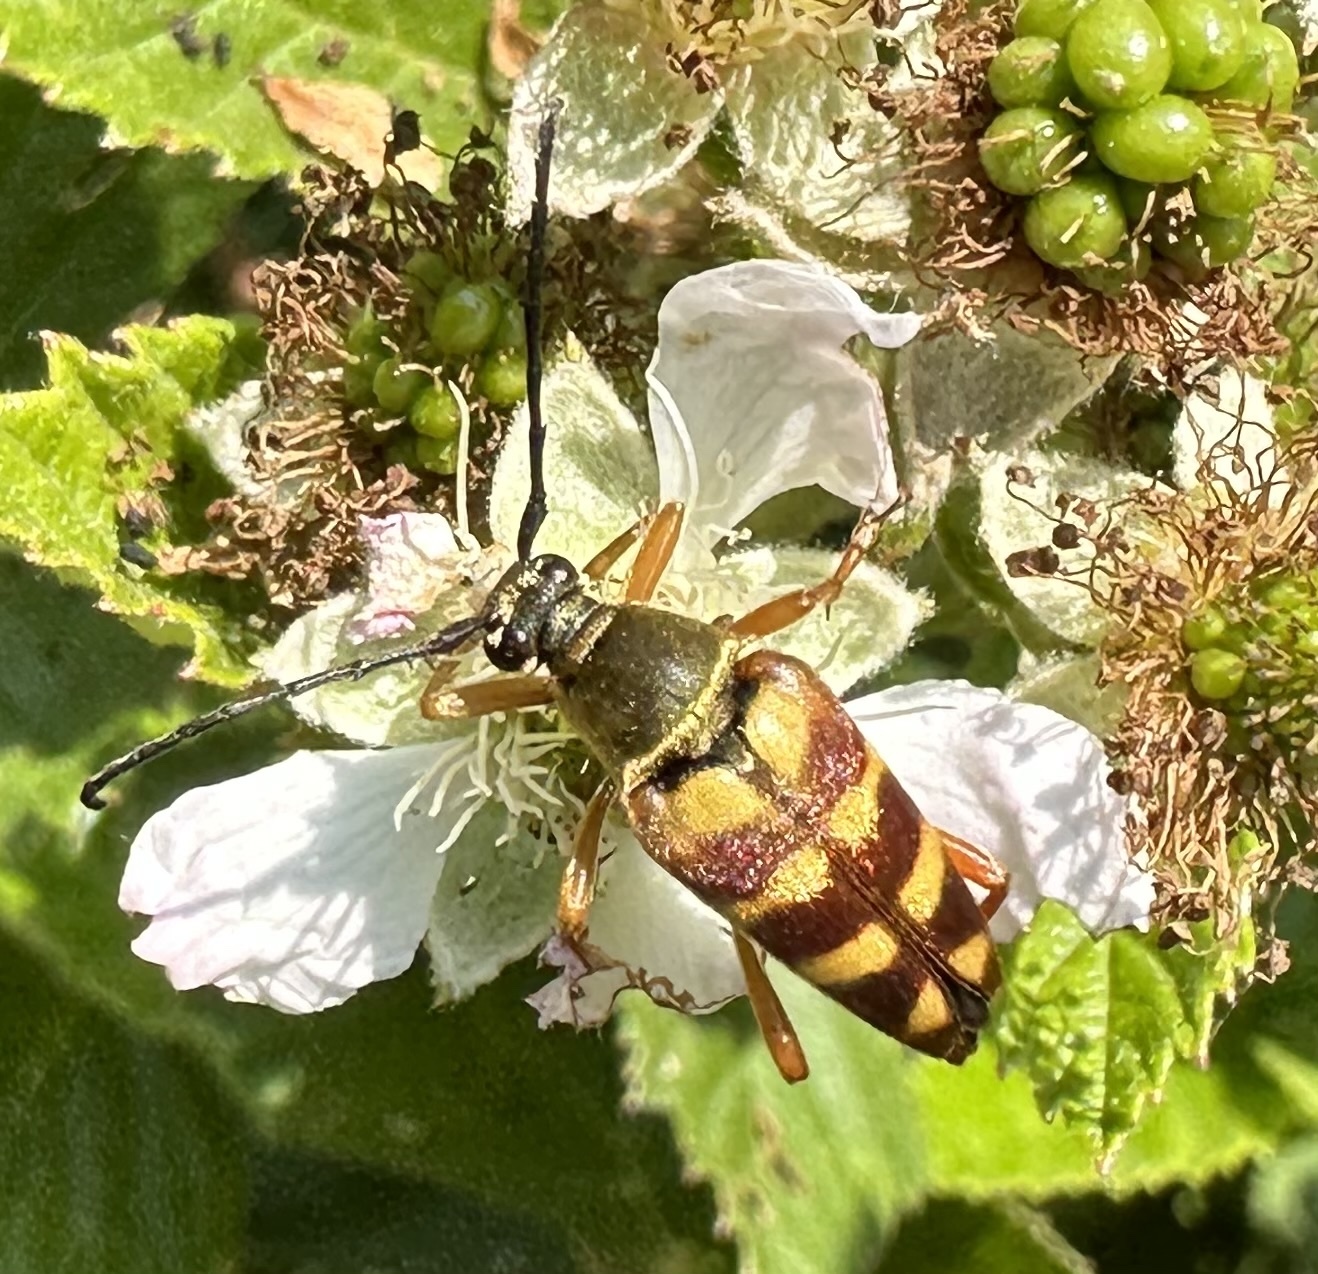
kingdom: Animalia
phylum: Arthropoda
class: Insecta
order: Coleoptera
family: Cerambycidae
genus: Typocerus
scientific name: Typocerus velutinus
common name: Banded longhorn beetle
